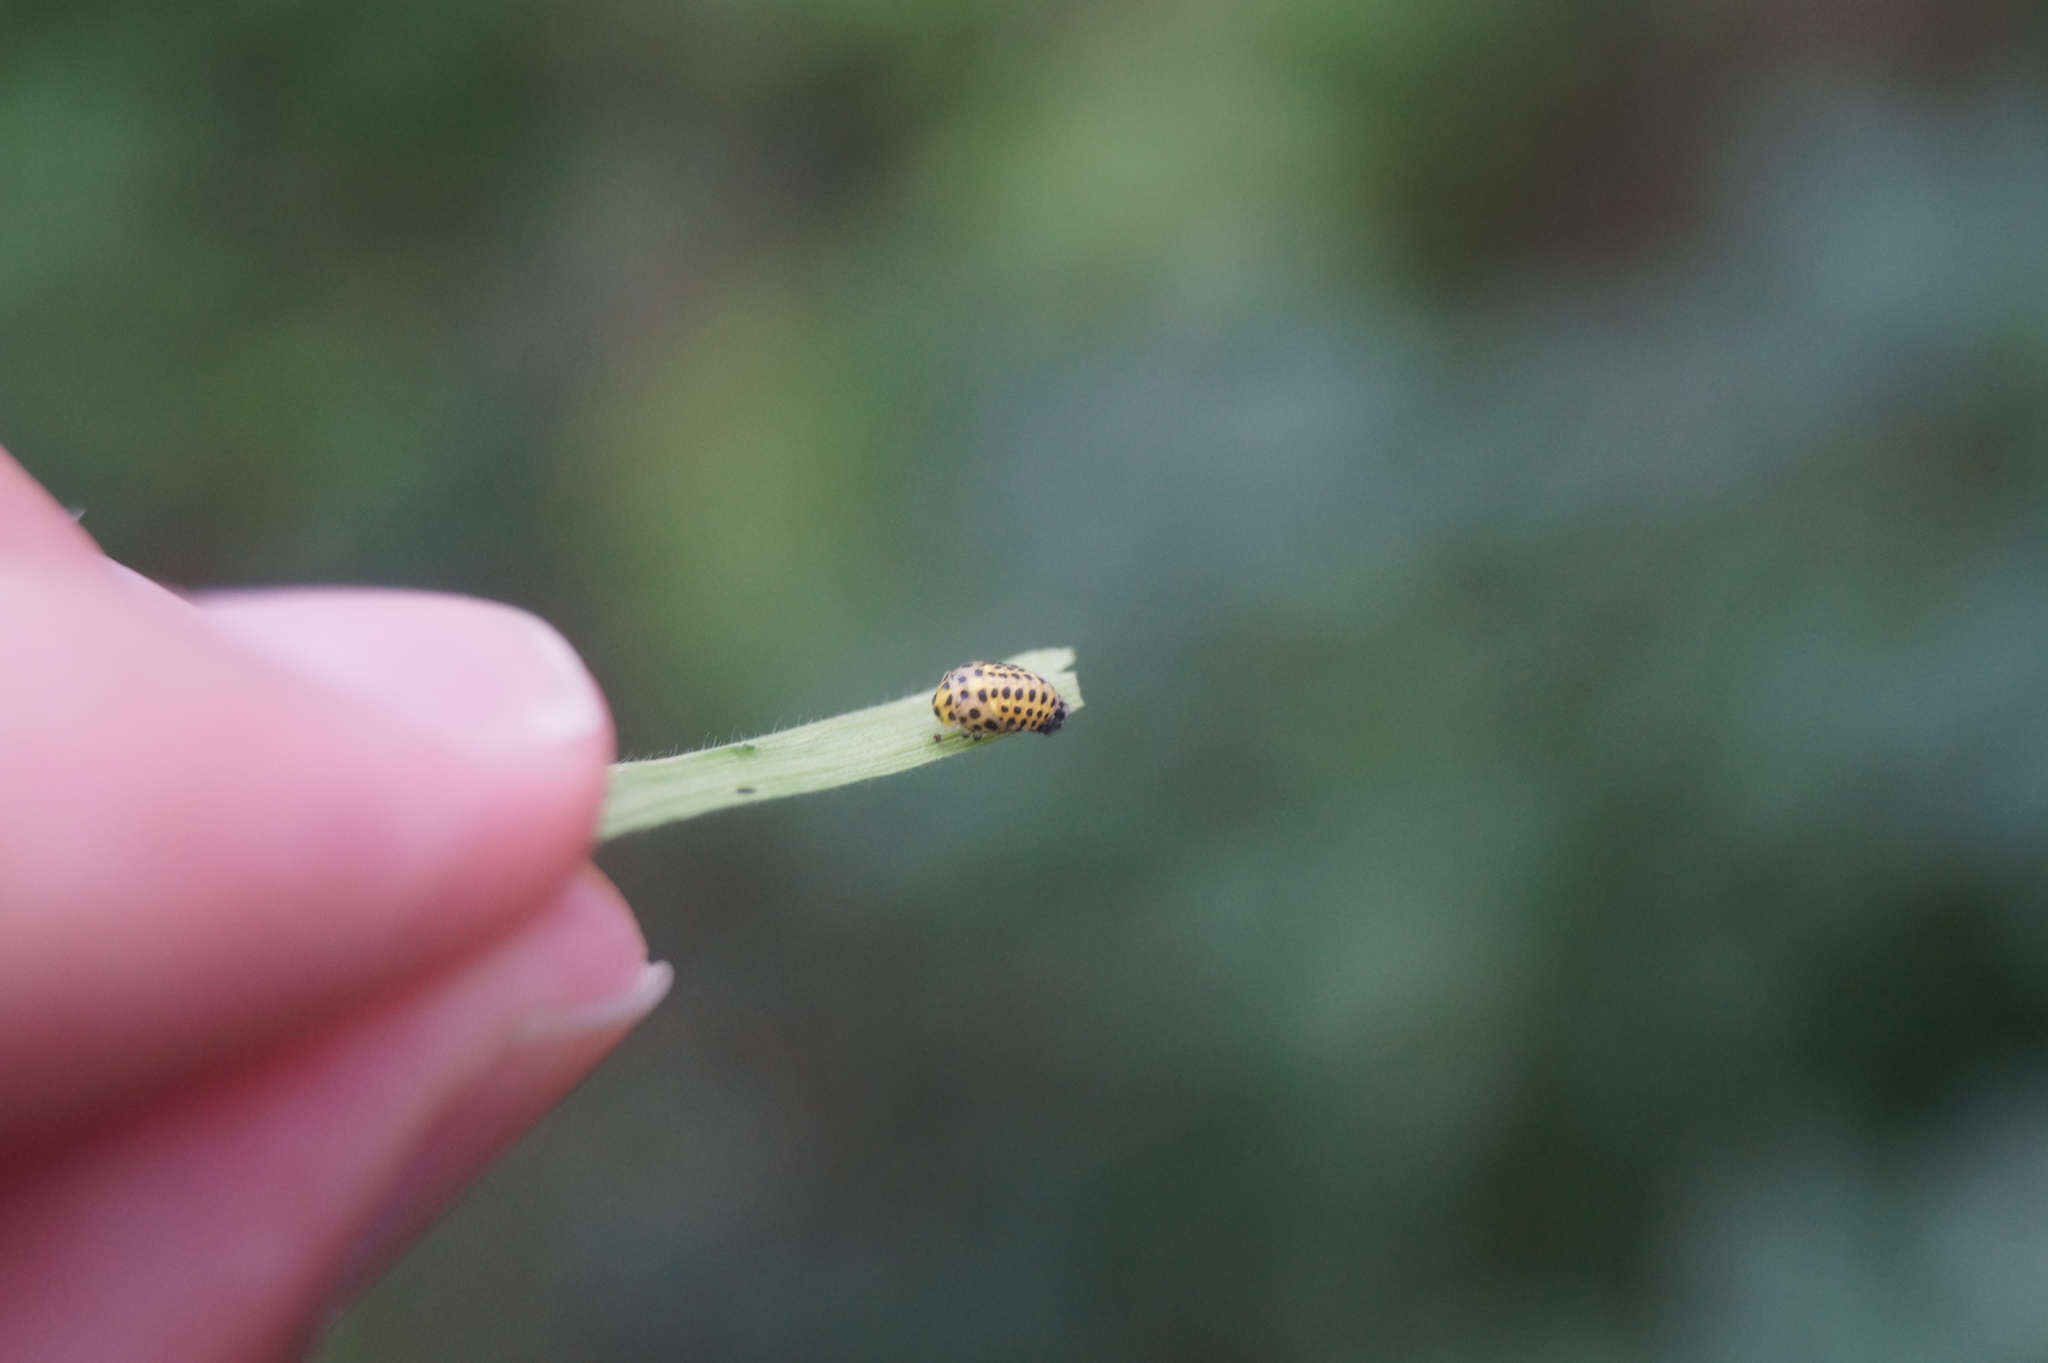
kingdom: Animalia
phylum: Arthropoda
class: Insecta
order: Coleoptera
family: Coccinellidae
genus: Psyllobora
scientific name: Psyllobora vigintiduopunctata
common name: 22-spot ladybird
